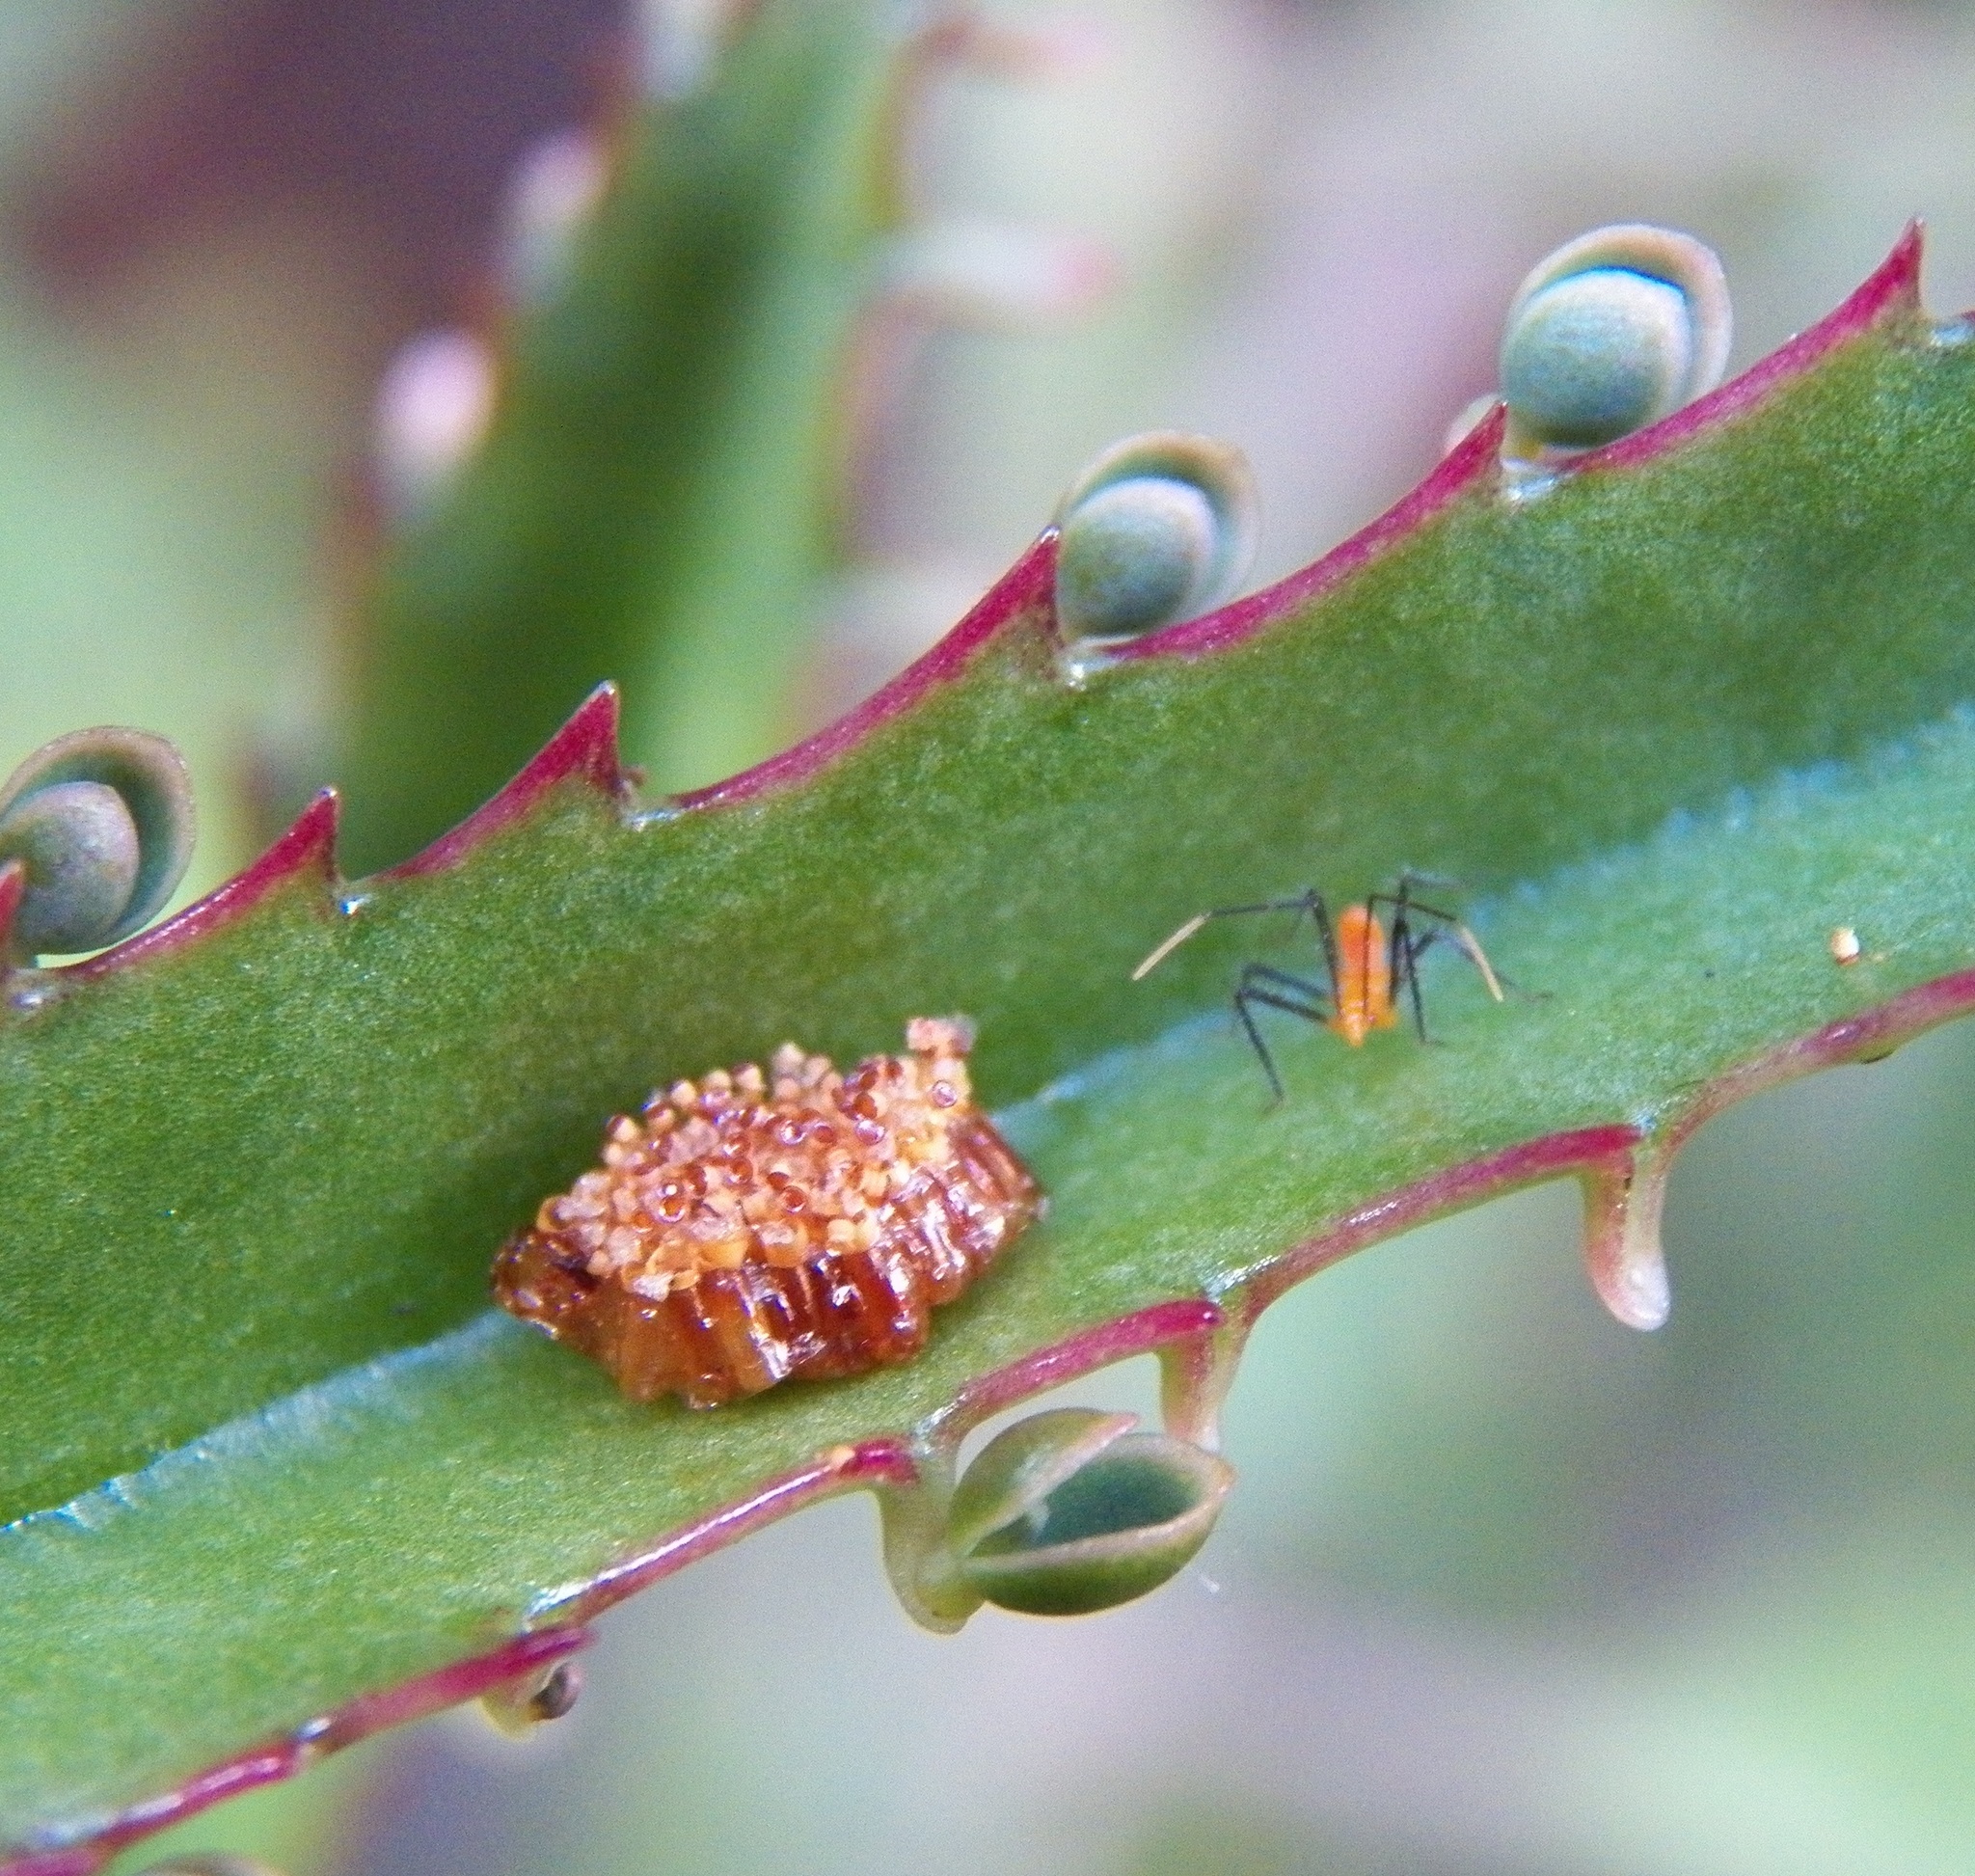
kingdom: Animalia
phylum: Arthropoda
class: Insecta
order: Hemiptera
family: Reduviidae
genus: Zelus
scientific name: Zelus longipes
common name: Milkweed assassin bug
